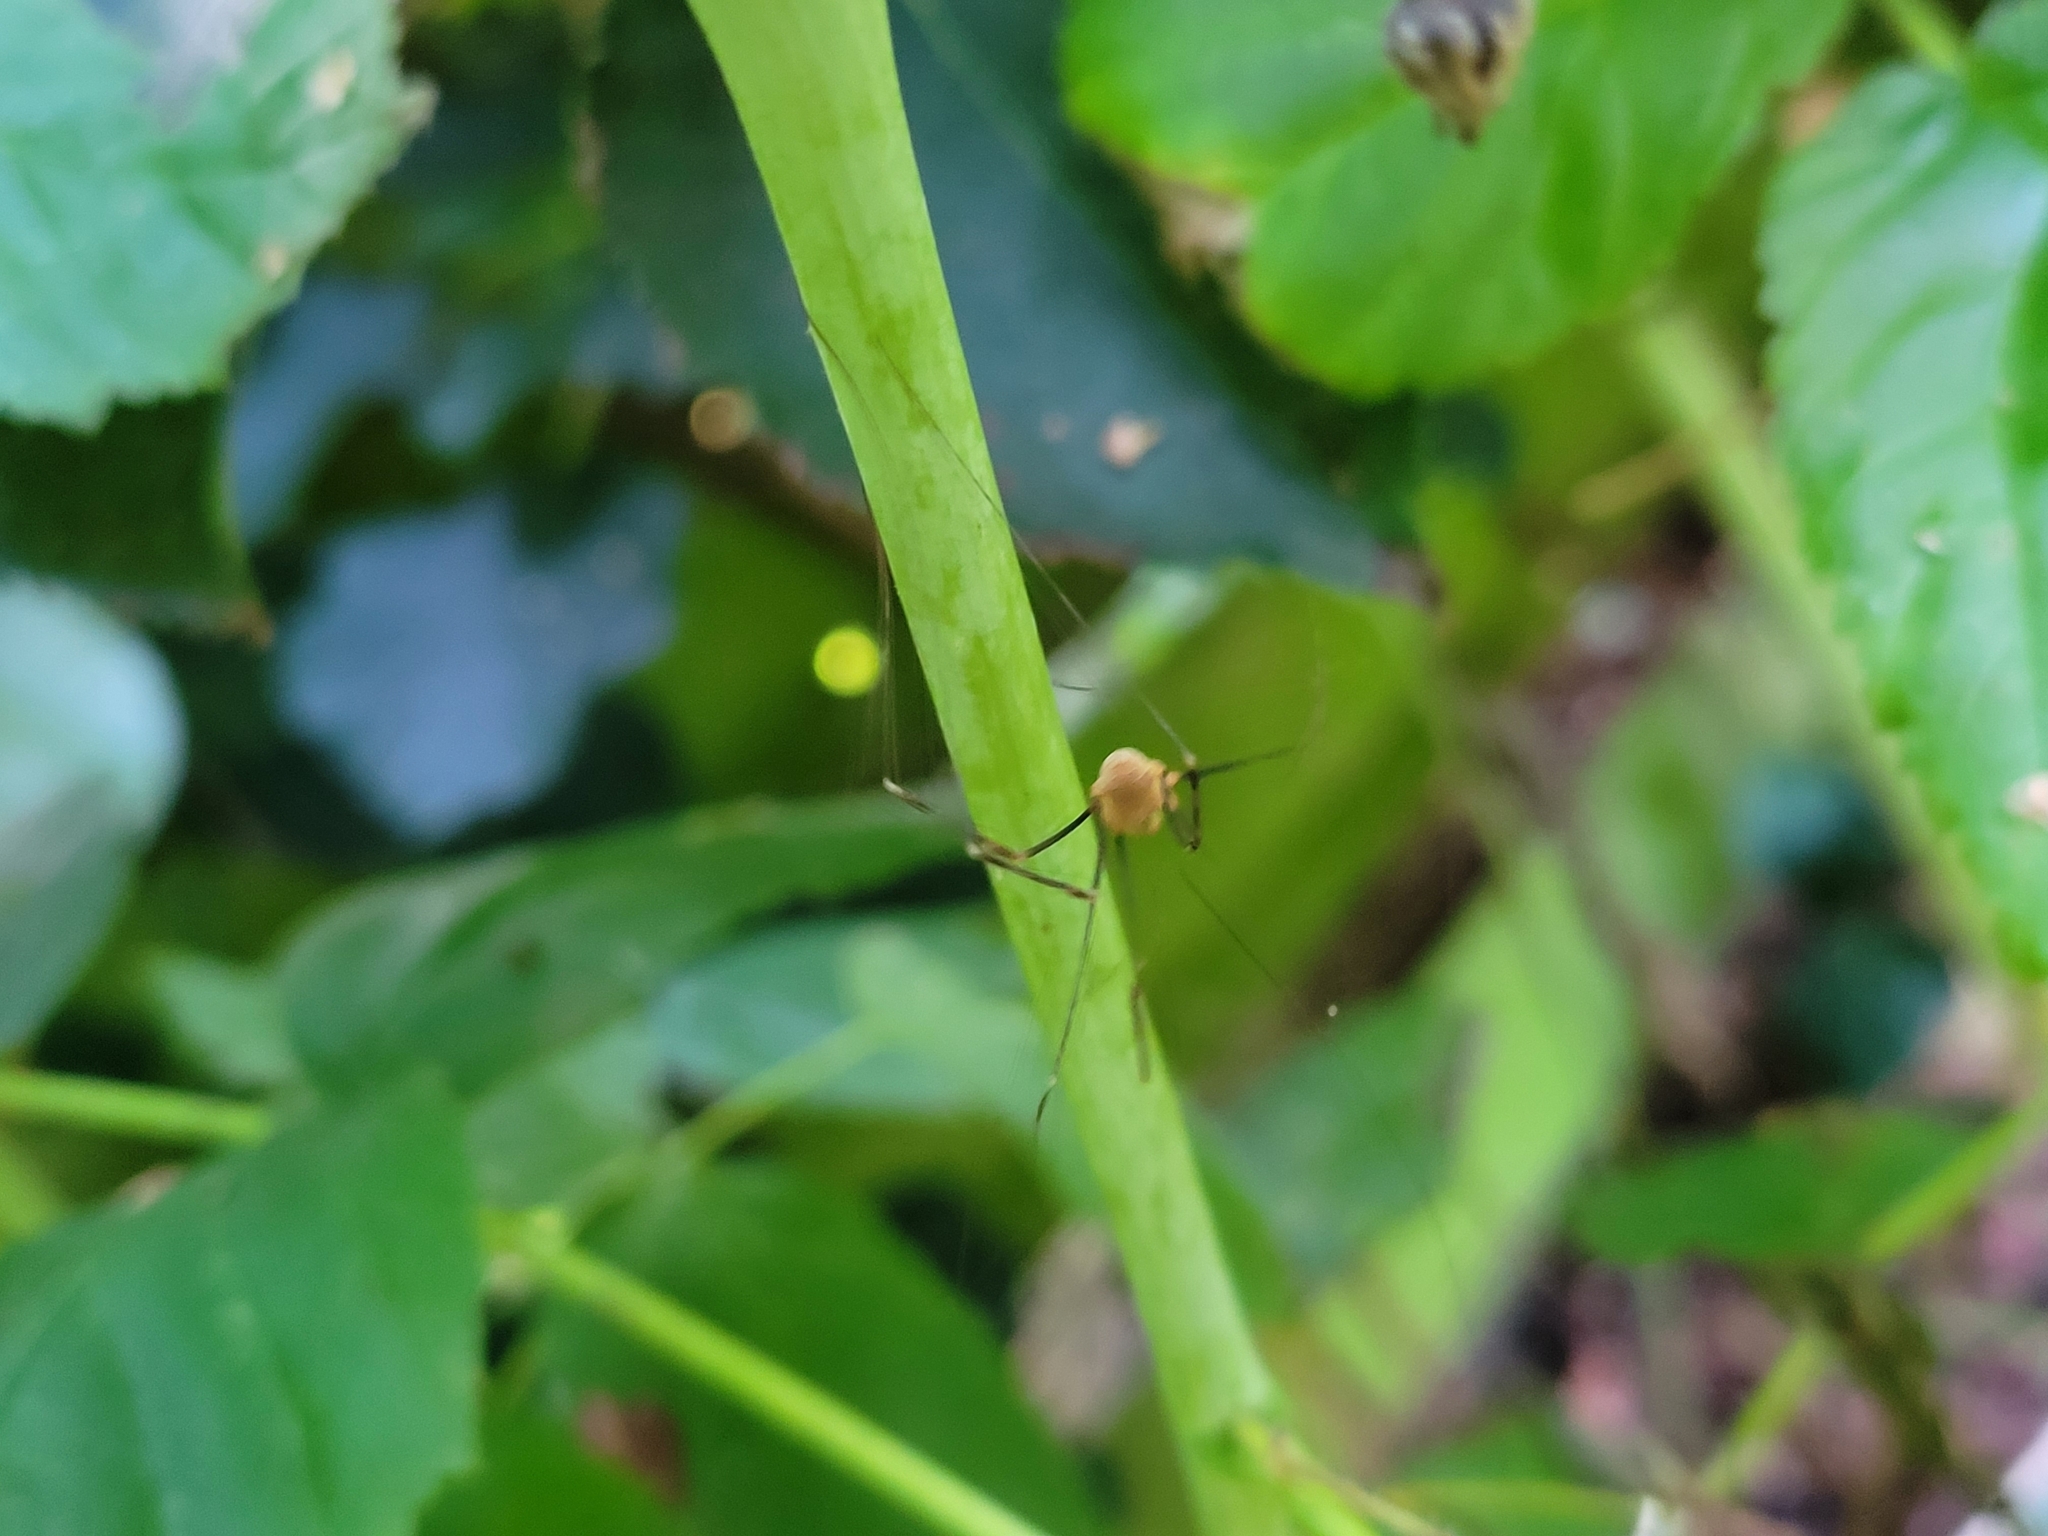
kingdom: Animalia
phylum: Arthropoda
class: Arachnida
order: Opiliones
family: Phalangiidae
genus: Opilio
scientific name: Opilio canestrinii
